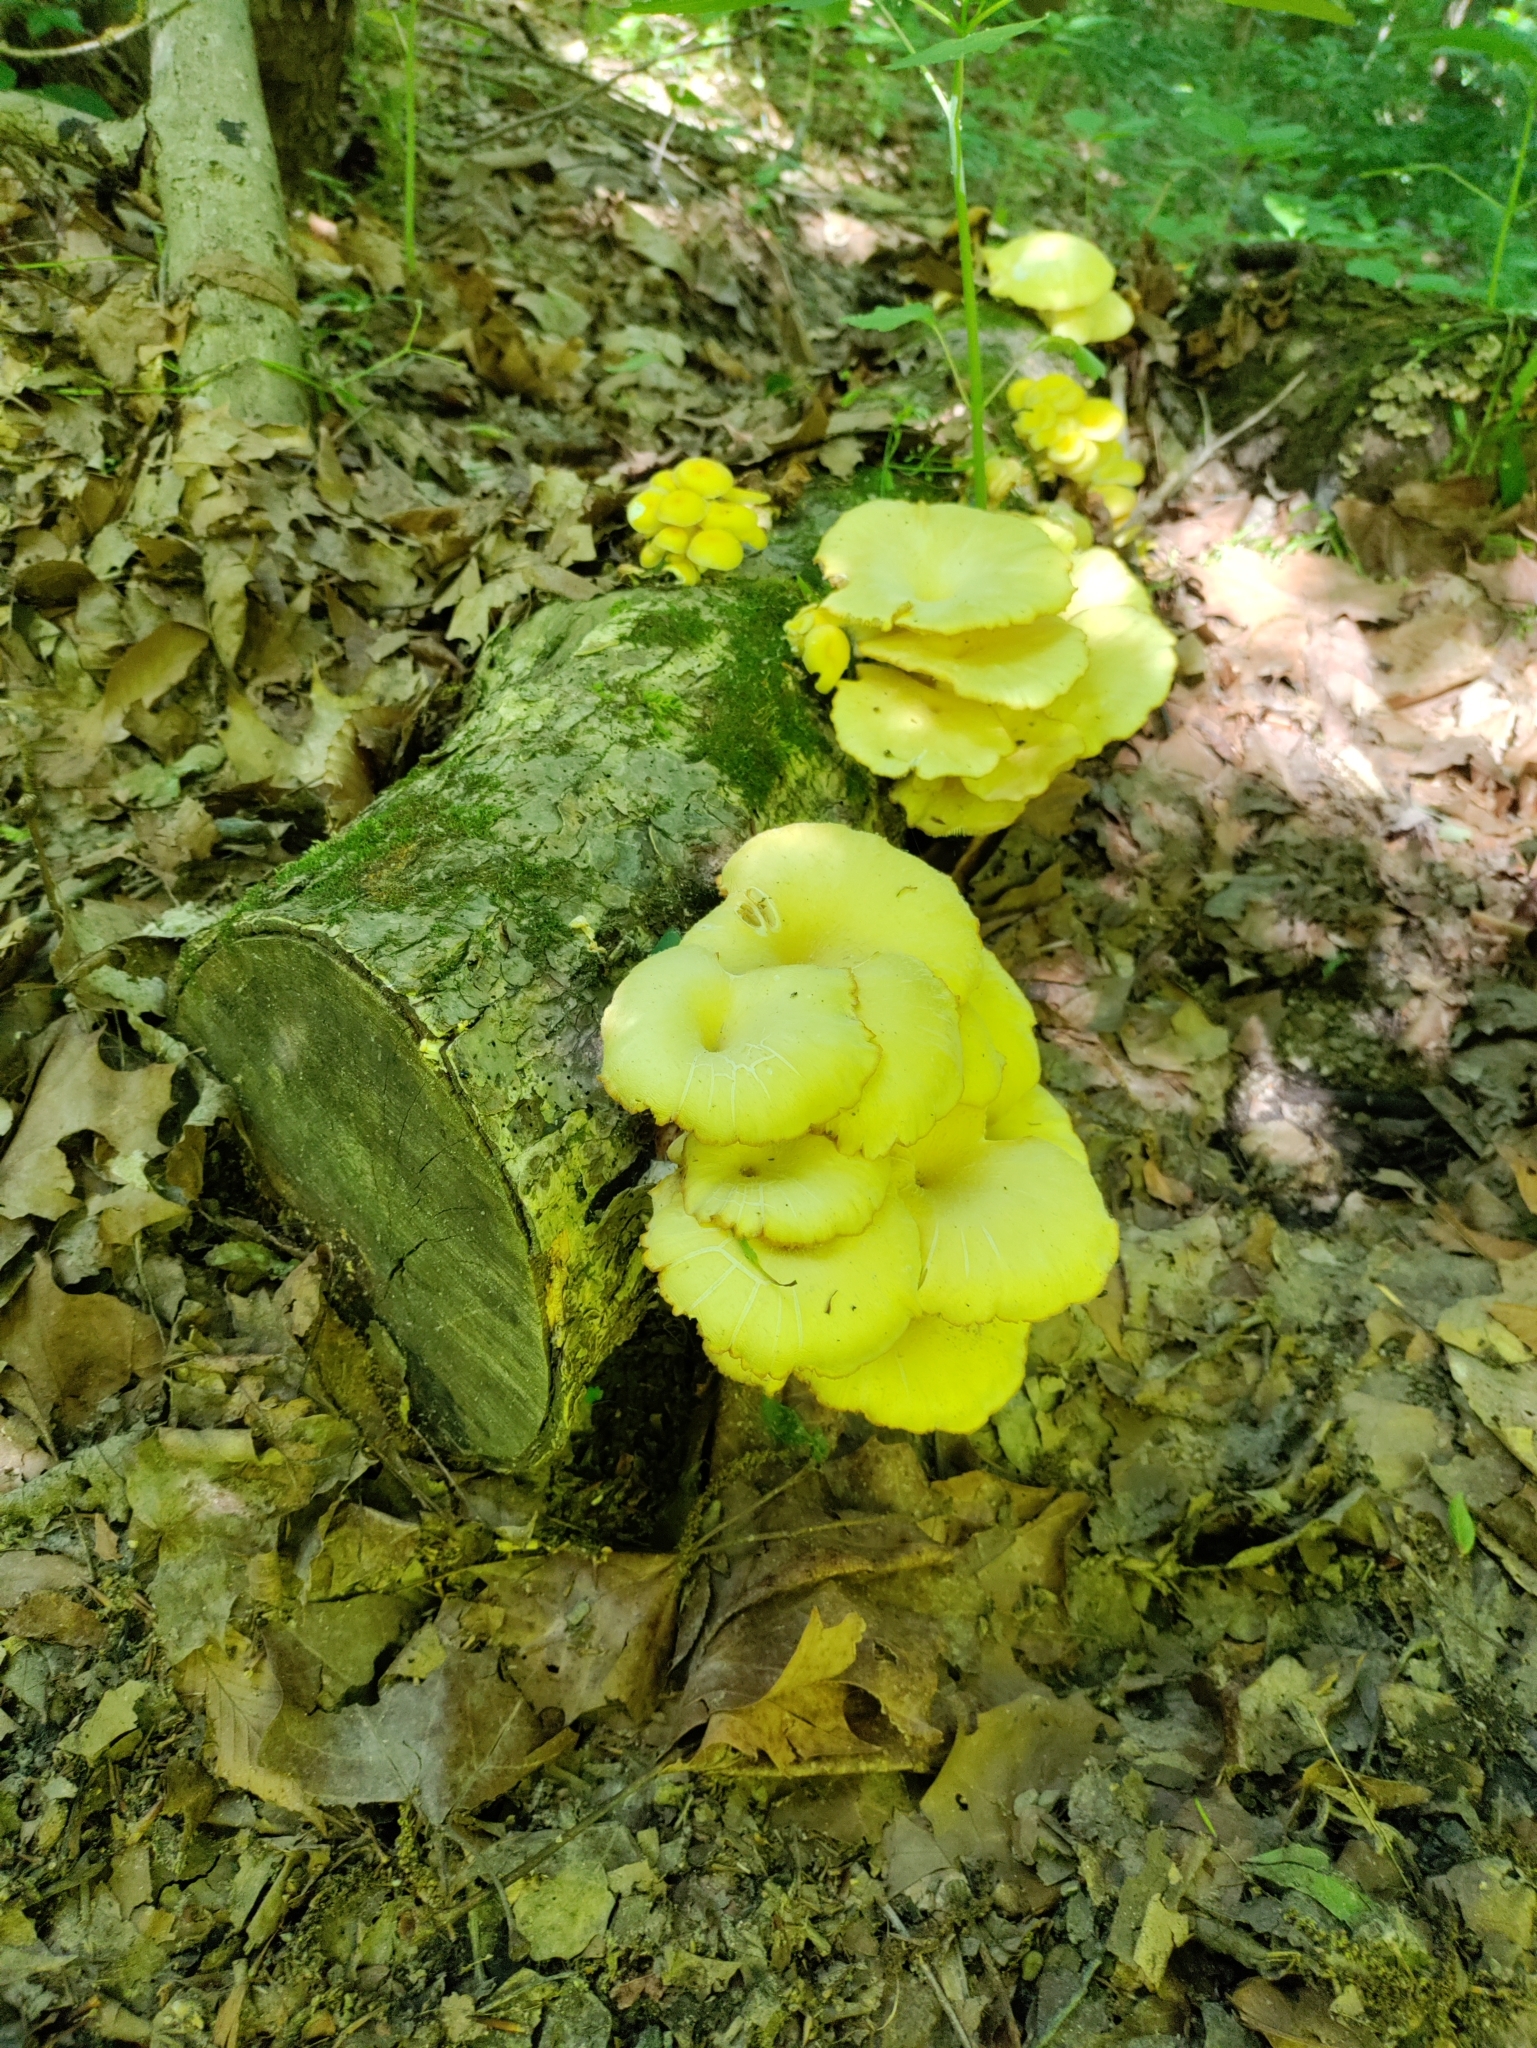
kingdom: Fungi
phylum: Basidiomycota
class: Agaricomycetes
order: Agaricales
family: Pleurotaceae
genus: Pleurotus
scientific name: Pleurotus citrinopileatus
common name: Golden oyster mushroom
